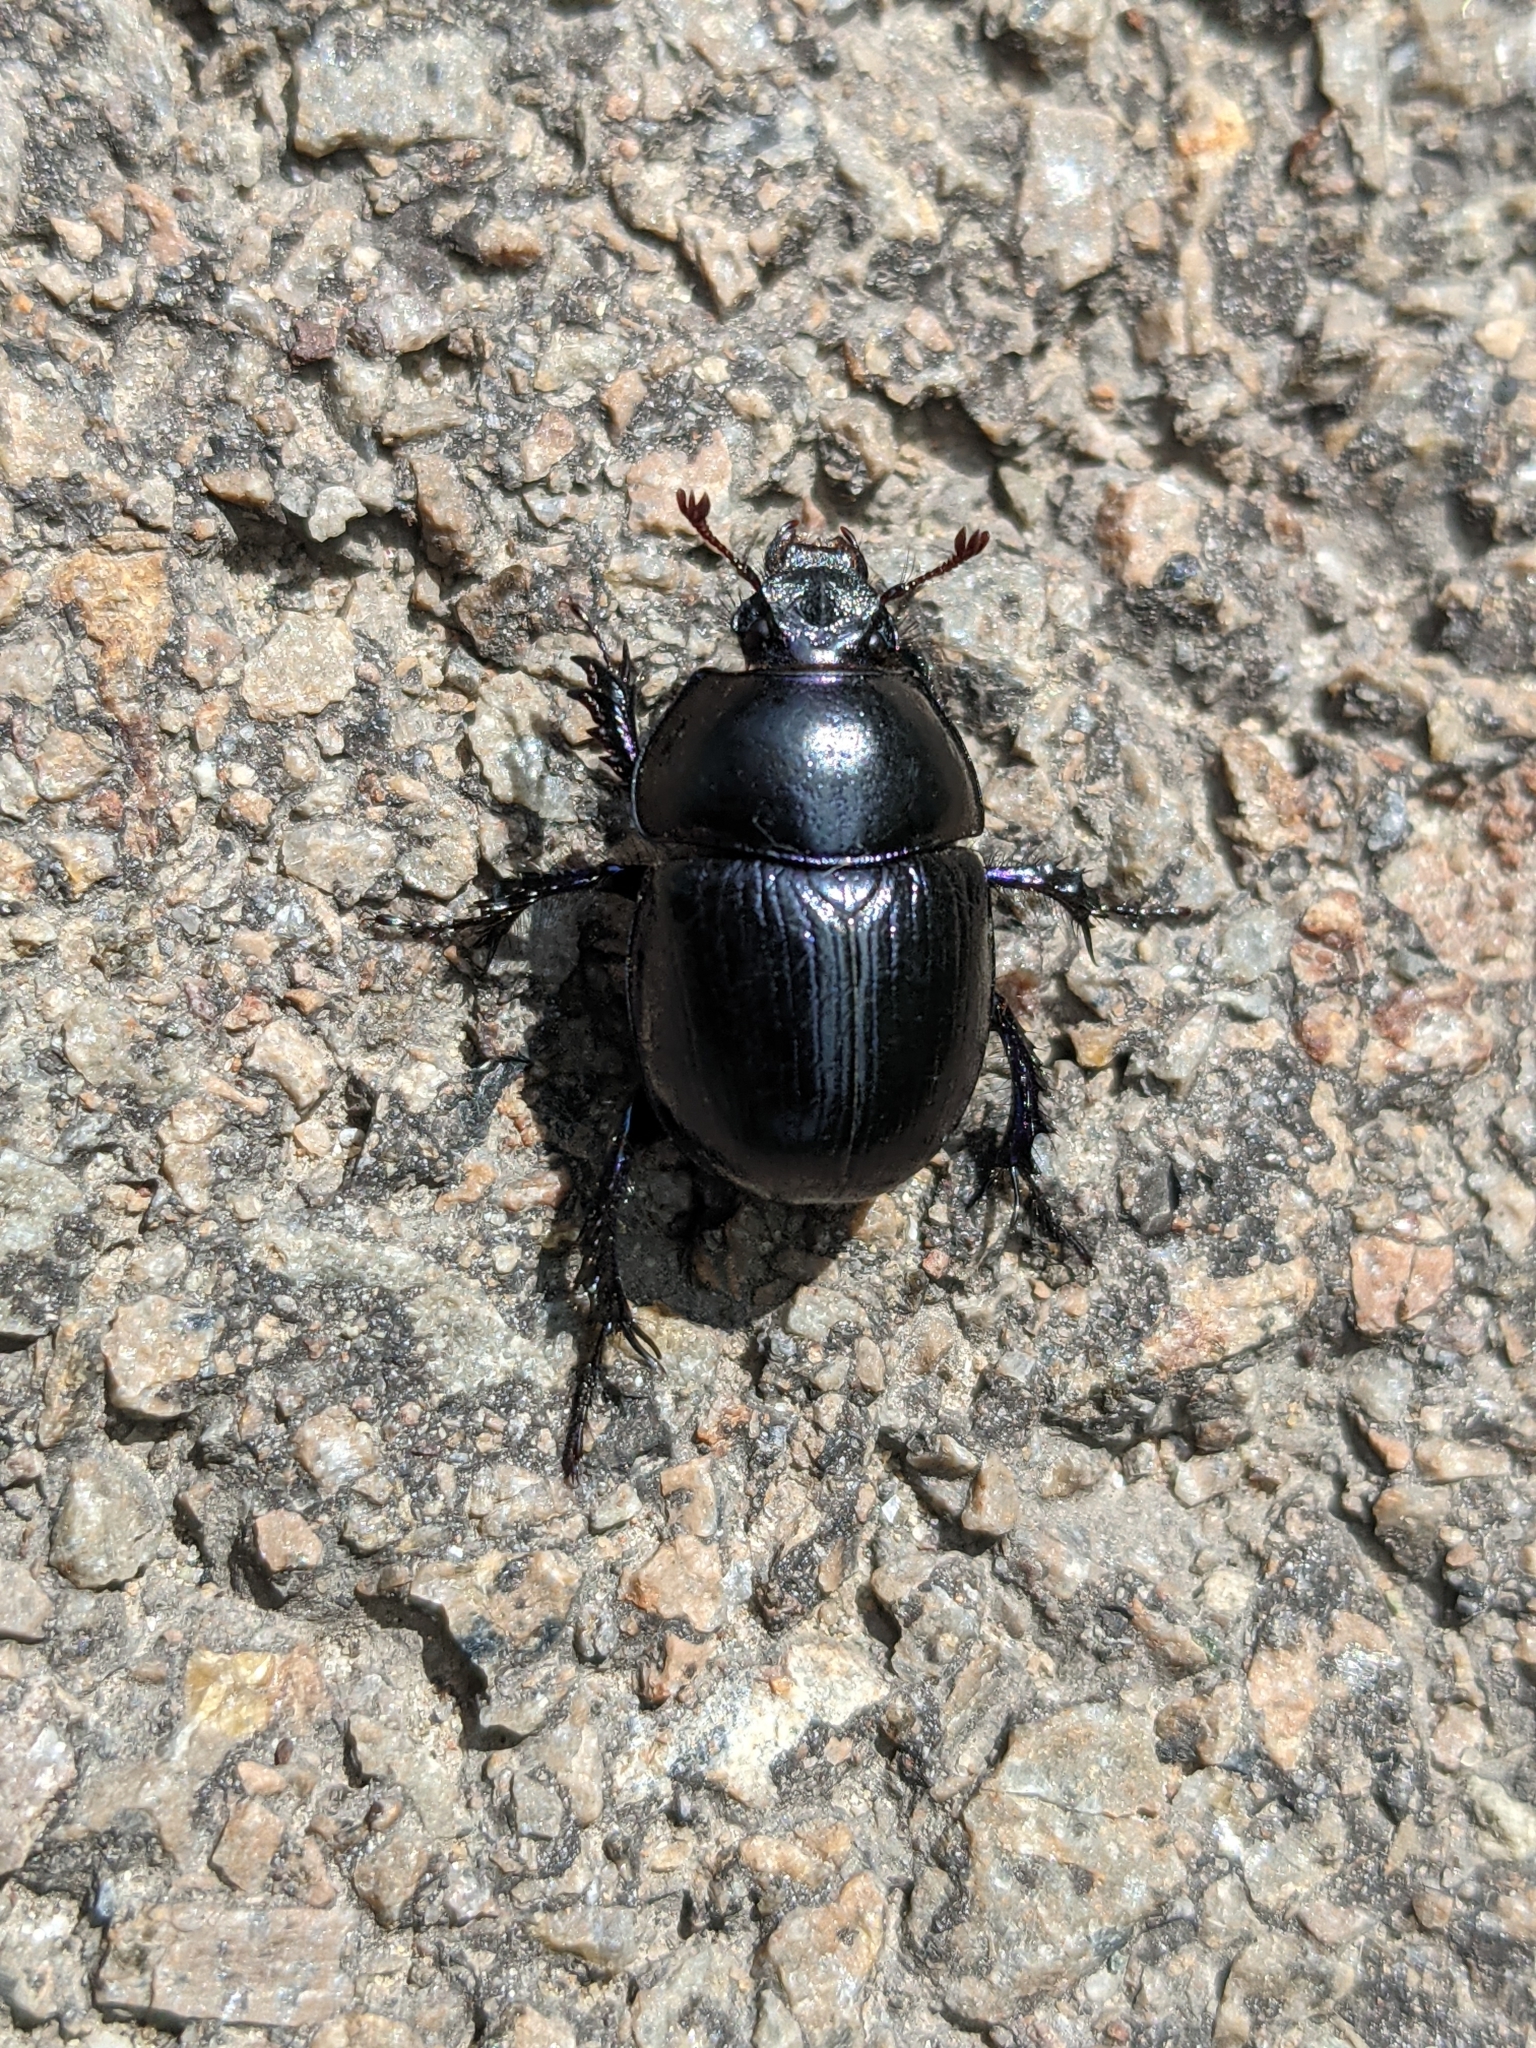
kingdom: Animalia
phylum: Arthropoda
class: Insecta
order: Coleoptera
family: Geotrupidae
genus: Anoplotrupes
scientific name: Anoplotrupes stercorosus
